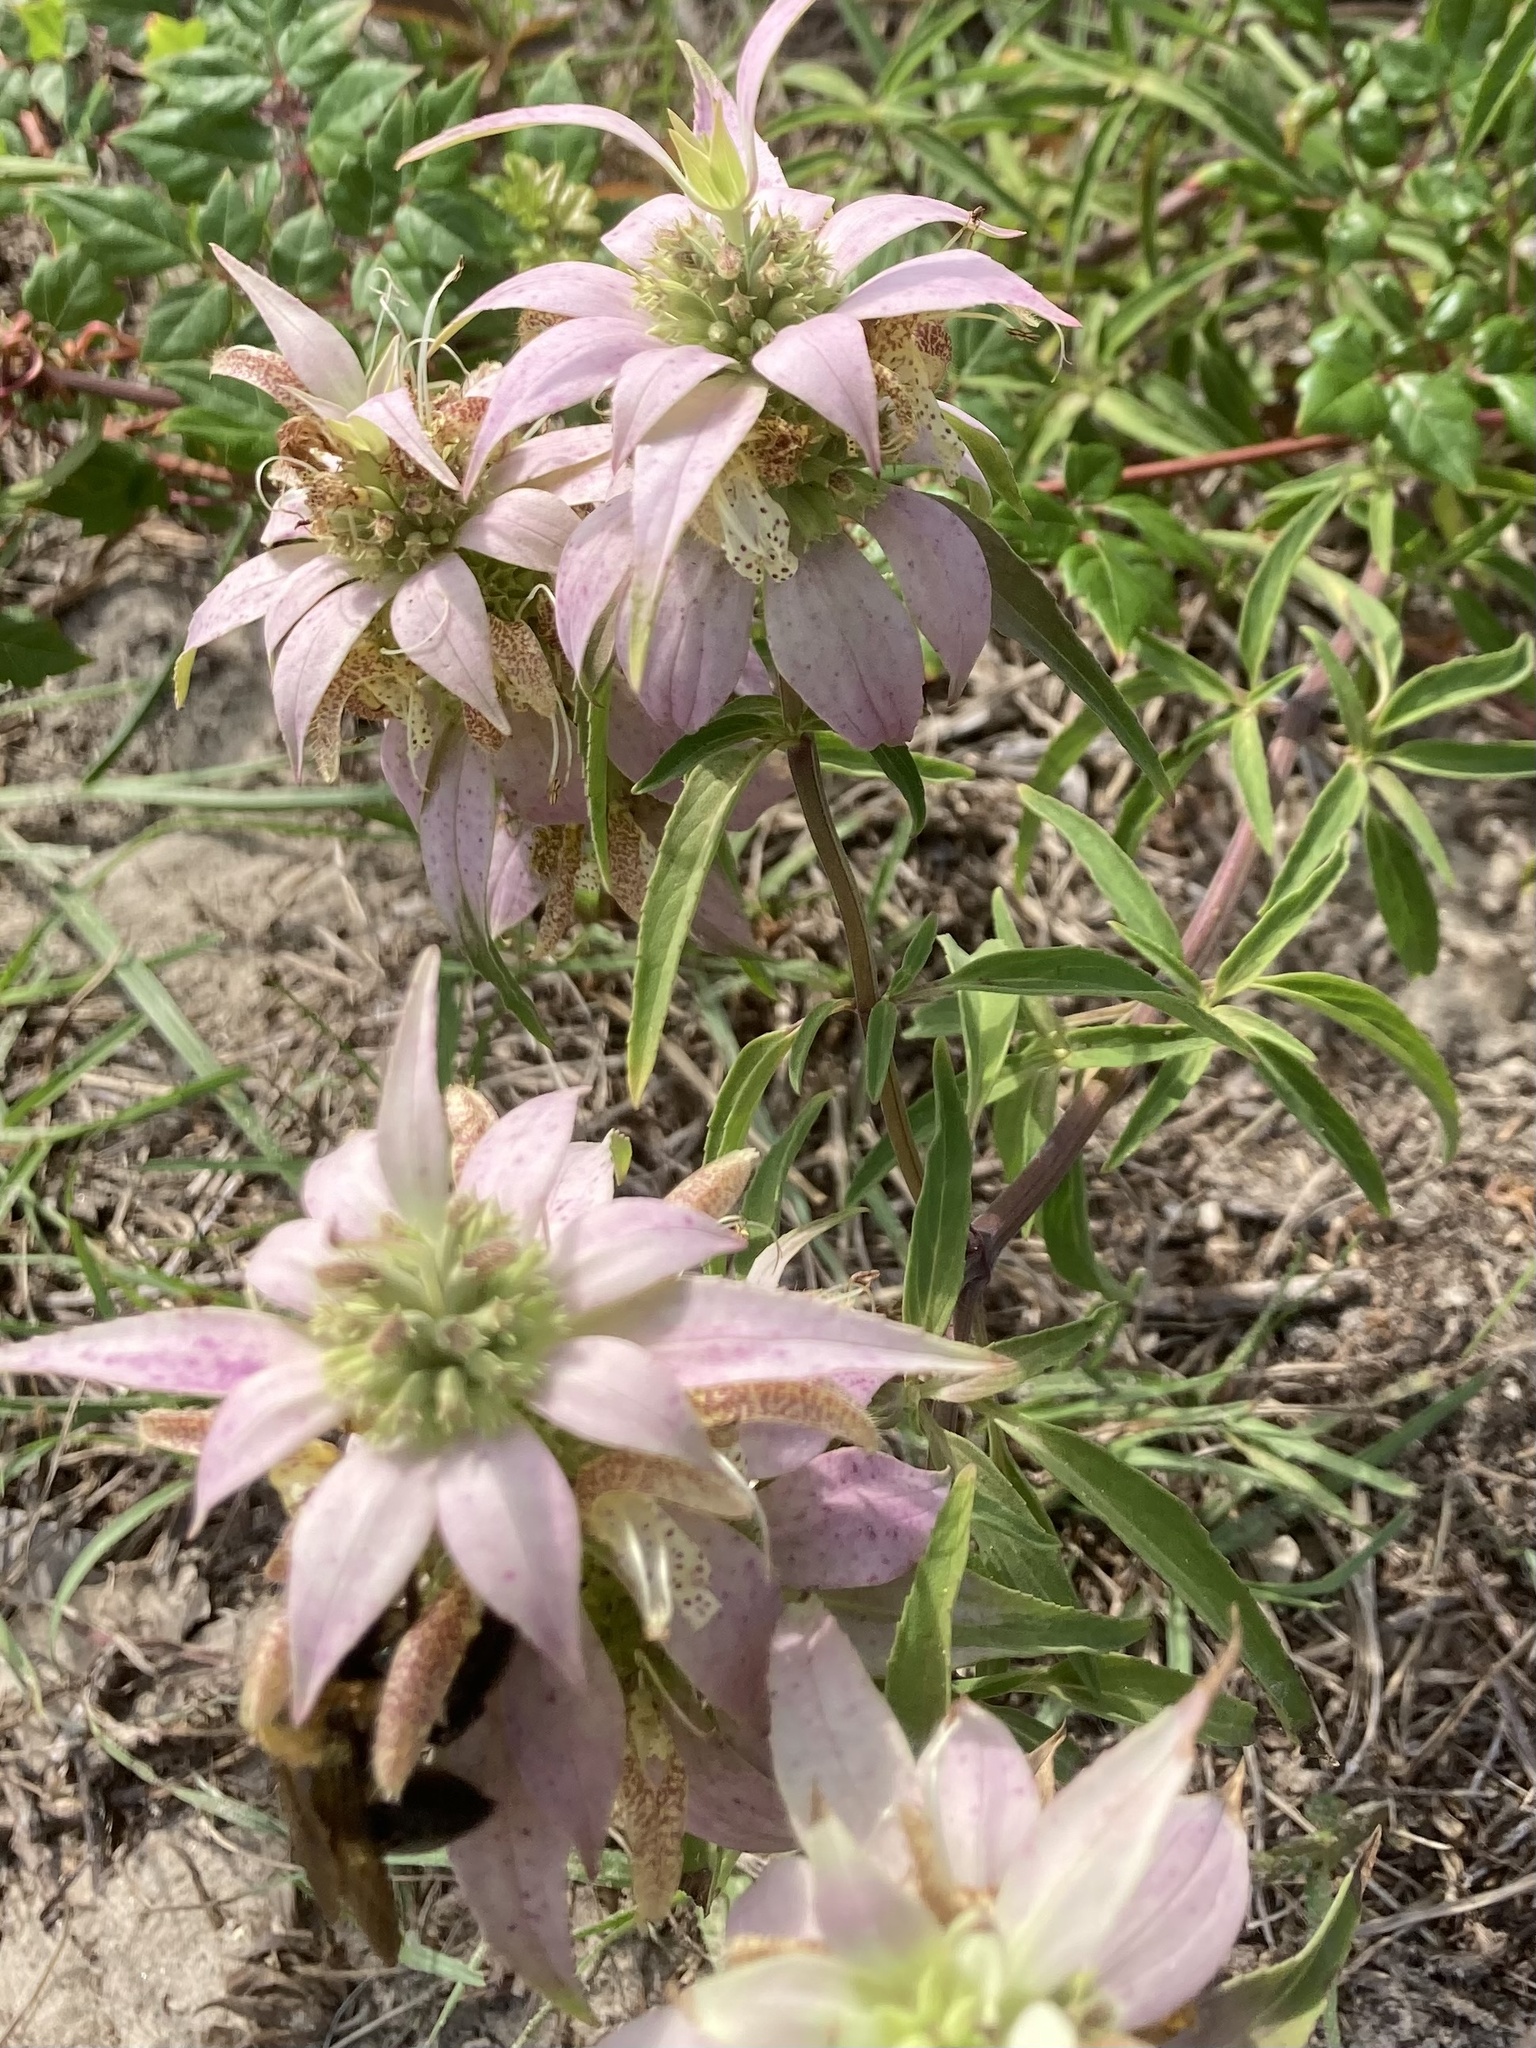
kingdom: Plantae
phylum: Tracheophyta
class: Magnoliopsida
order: Lamiales
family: Lamiaceae
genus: Monarda
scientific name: Monarda punctata
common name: Dotted monarda
